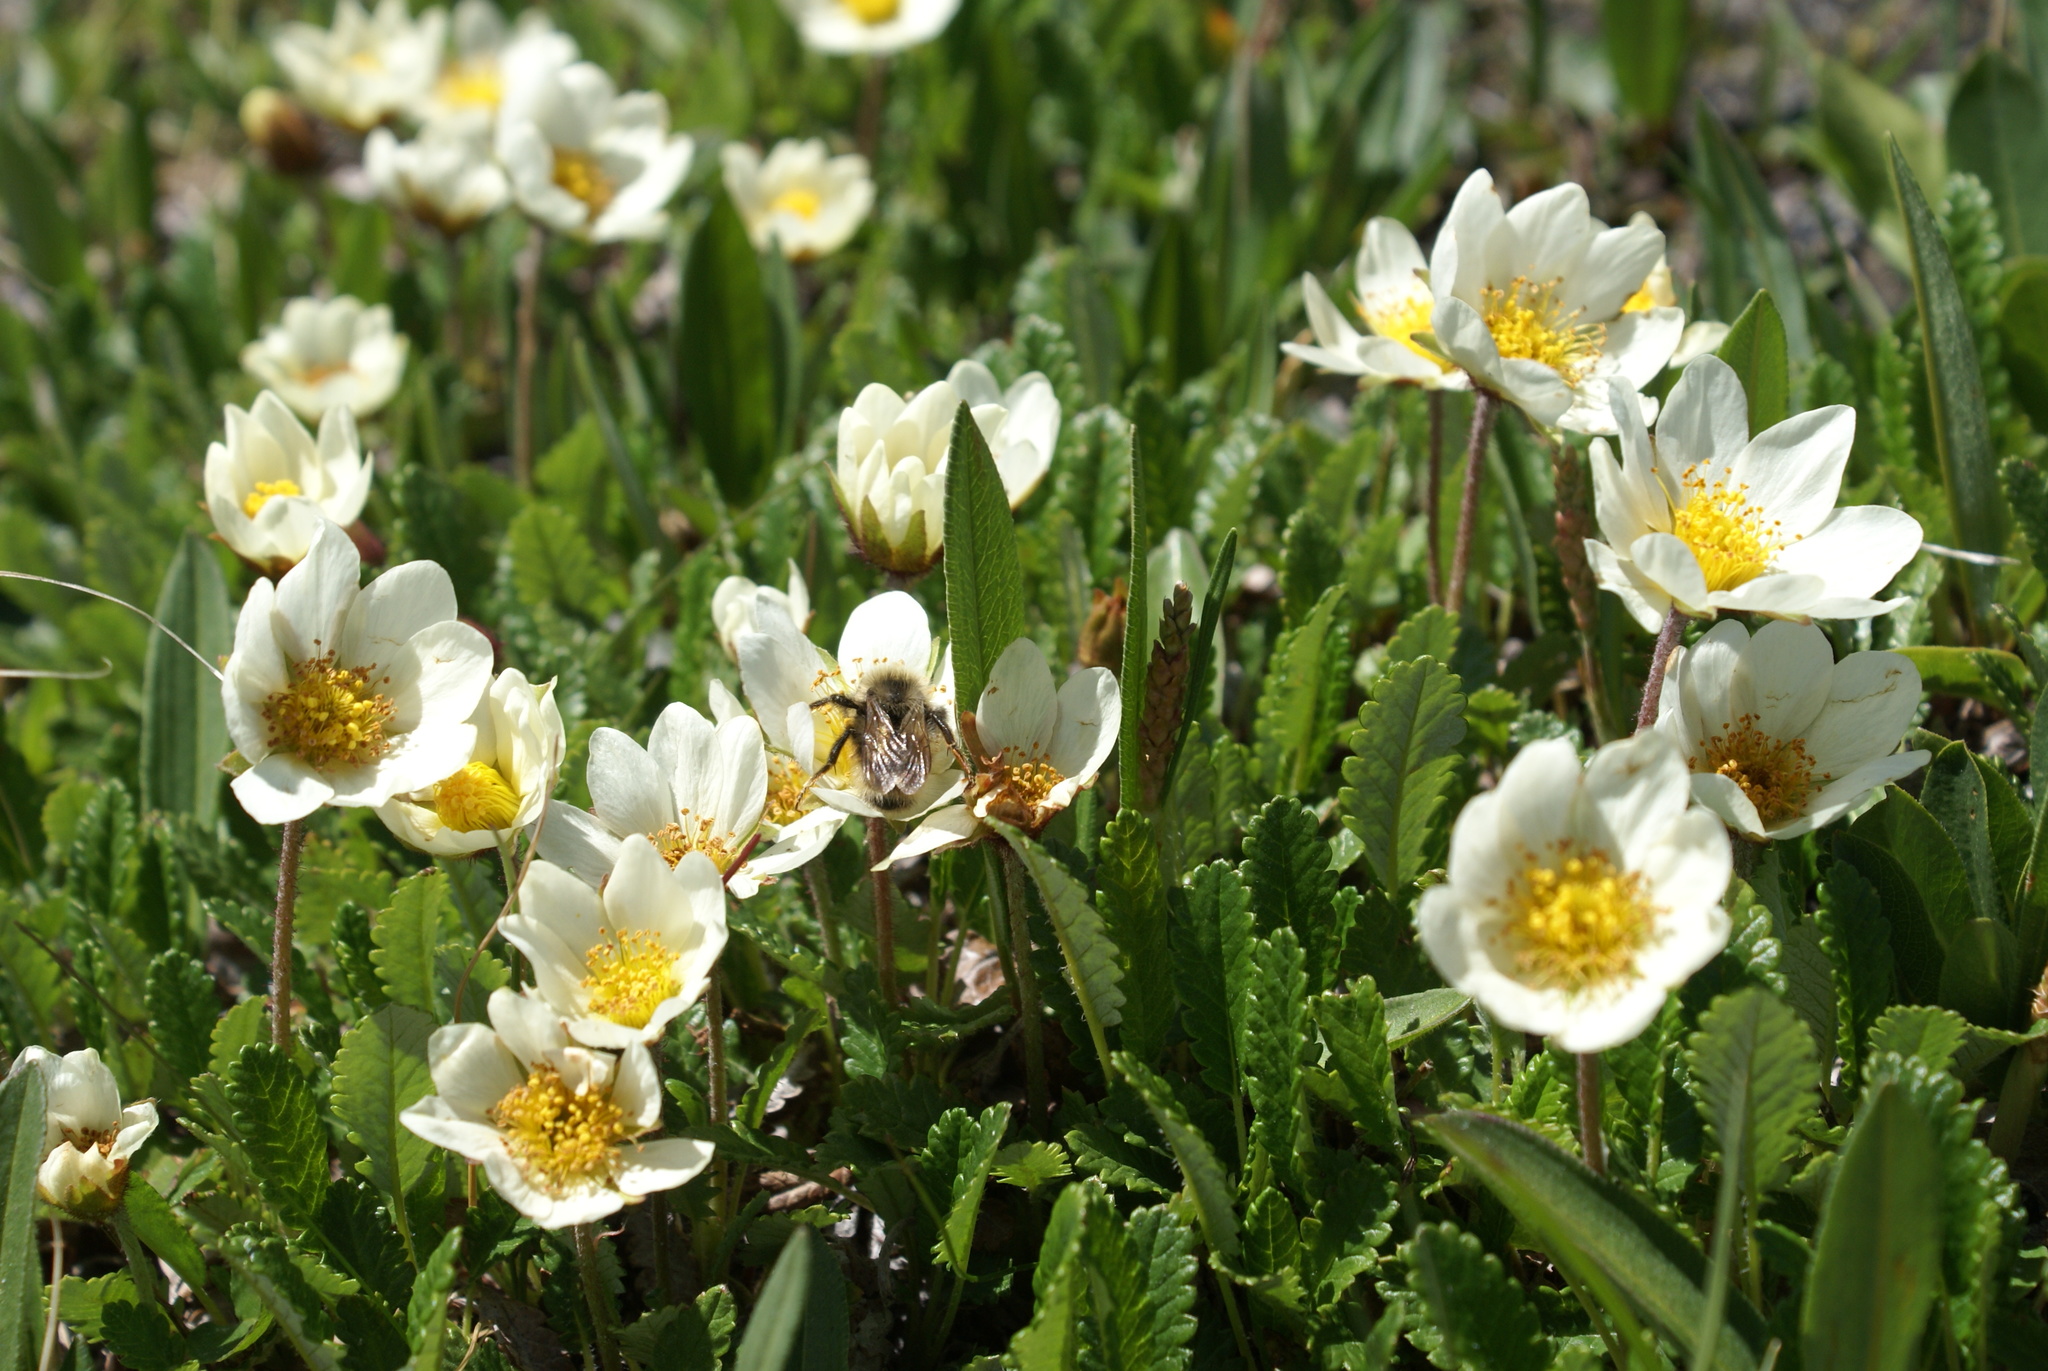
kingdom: Plantae
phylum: Tracheophyta
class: Magnoliopsida
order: Rosales
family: Rosaceae
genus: Dryas
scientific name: Dryas octopetala
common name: Eight-petal mountain-avens
